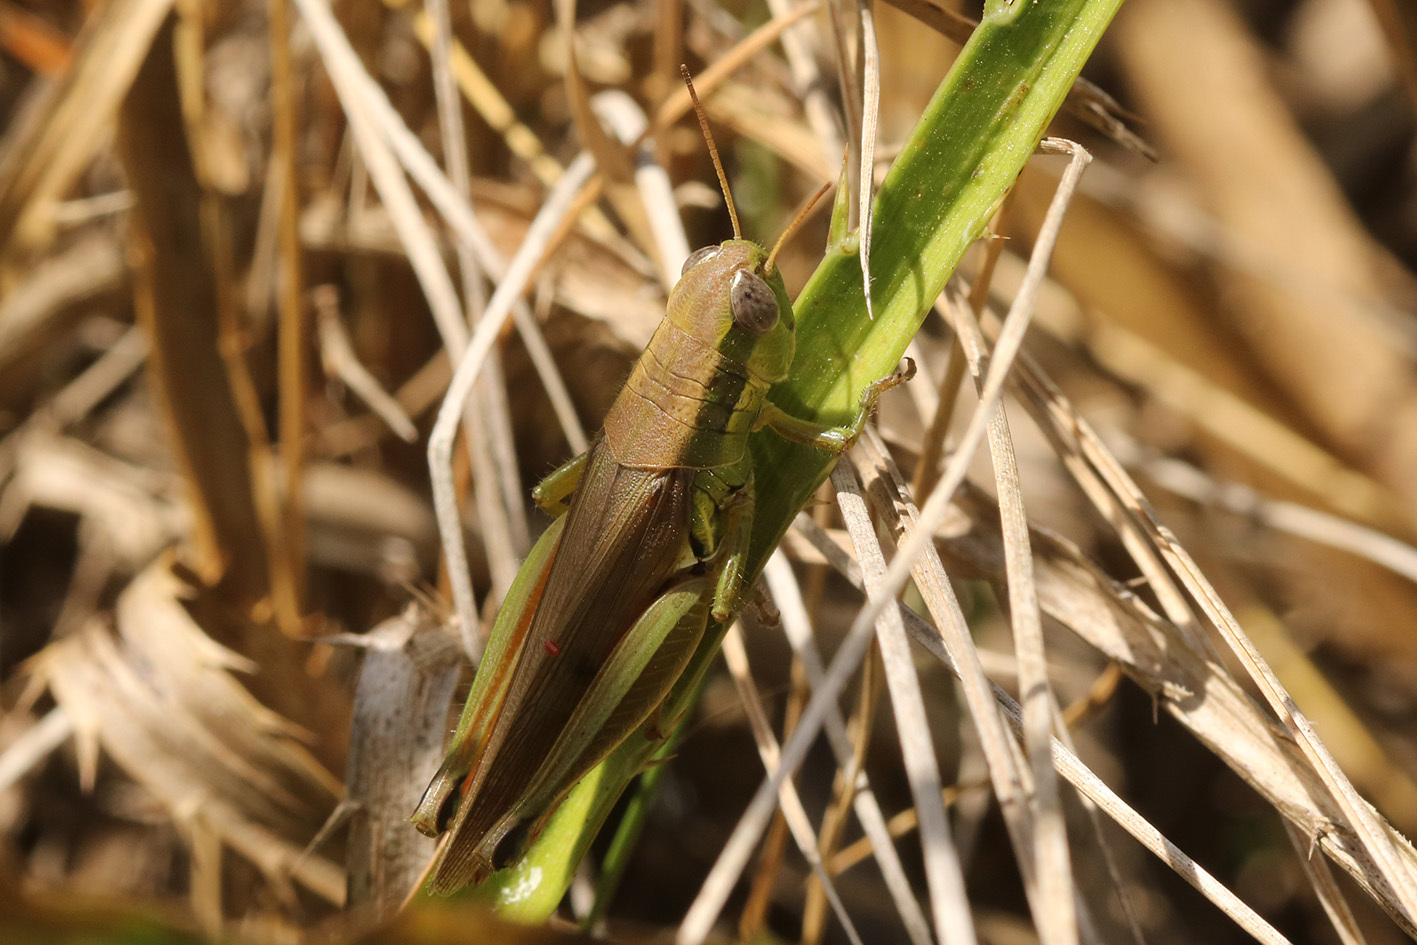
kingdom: Animalia
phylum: Arthropoda
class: Insecta
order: Orthoptera
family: Acrididae
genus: Leiotettix
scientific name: Leiotettix pulcher
